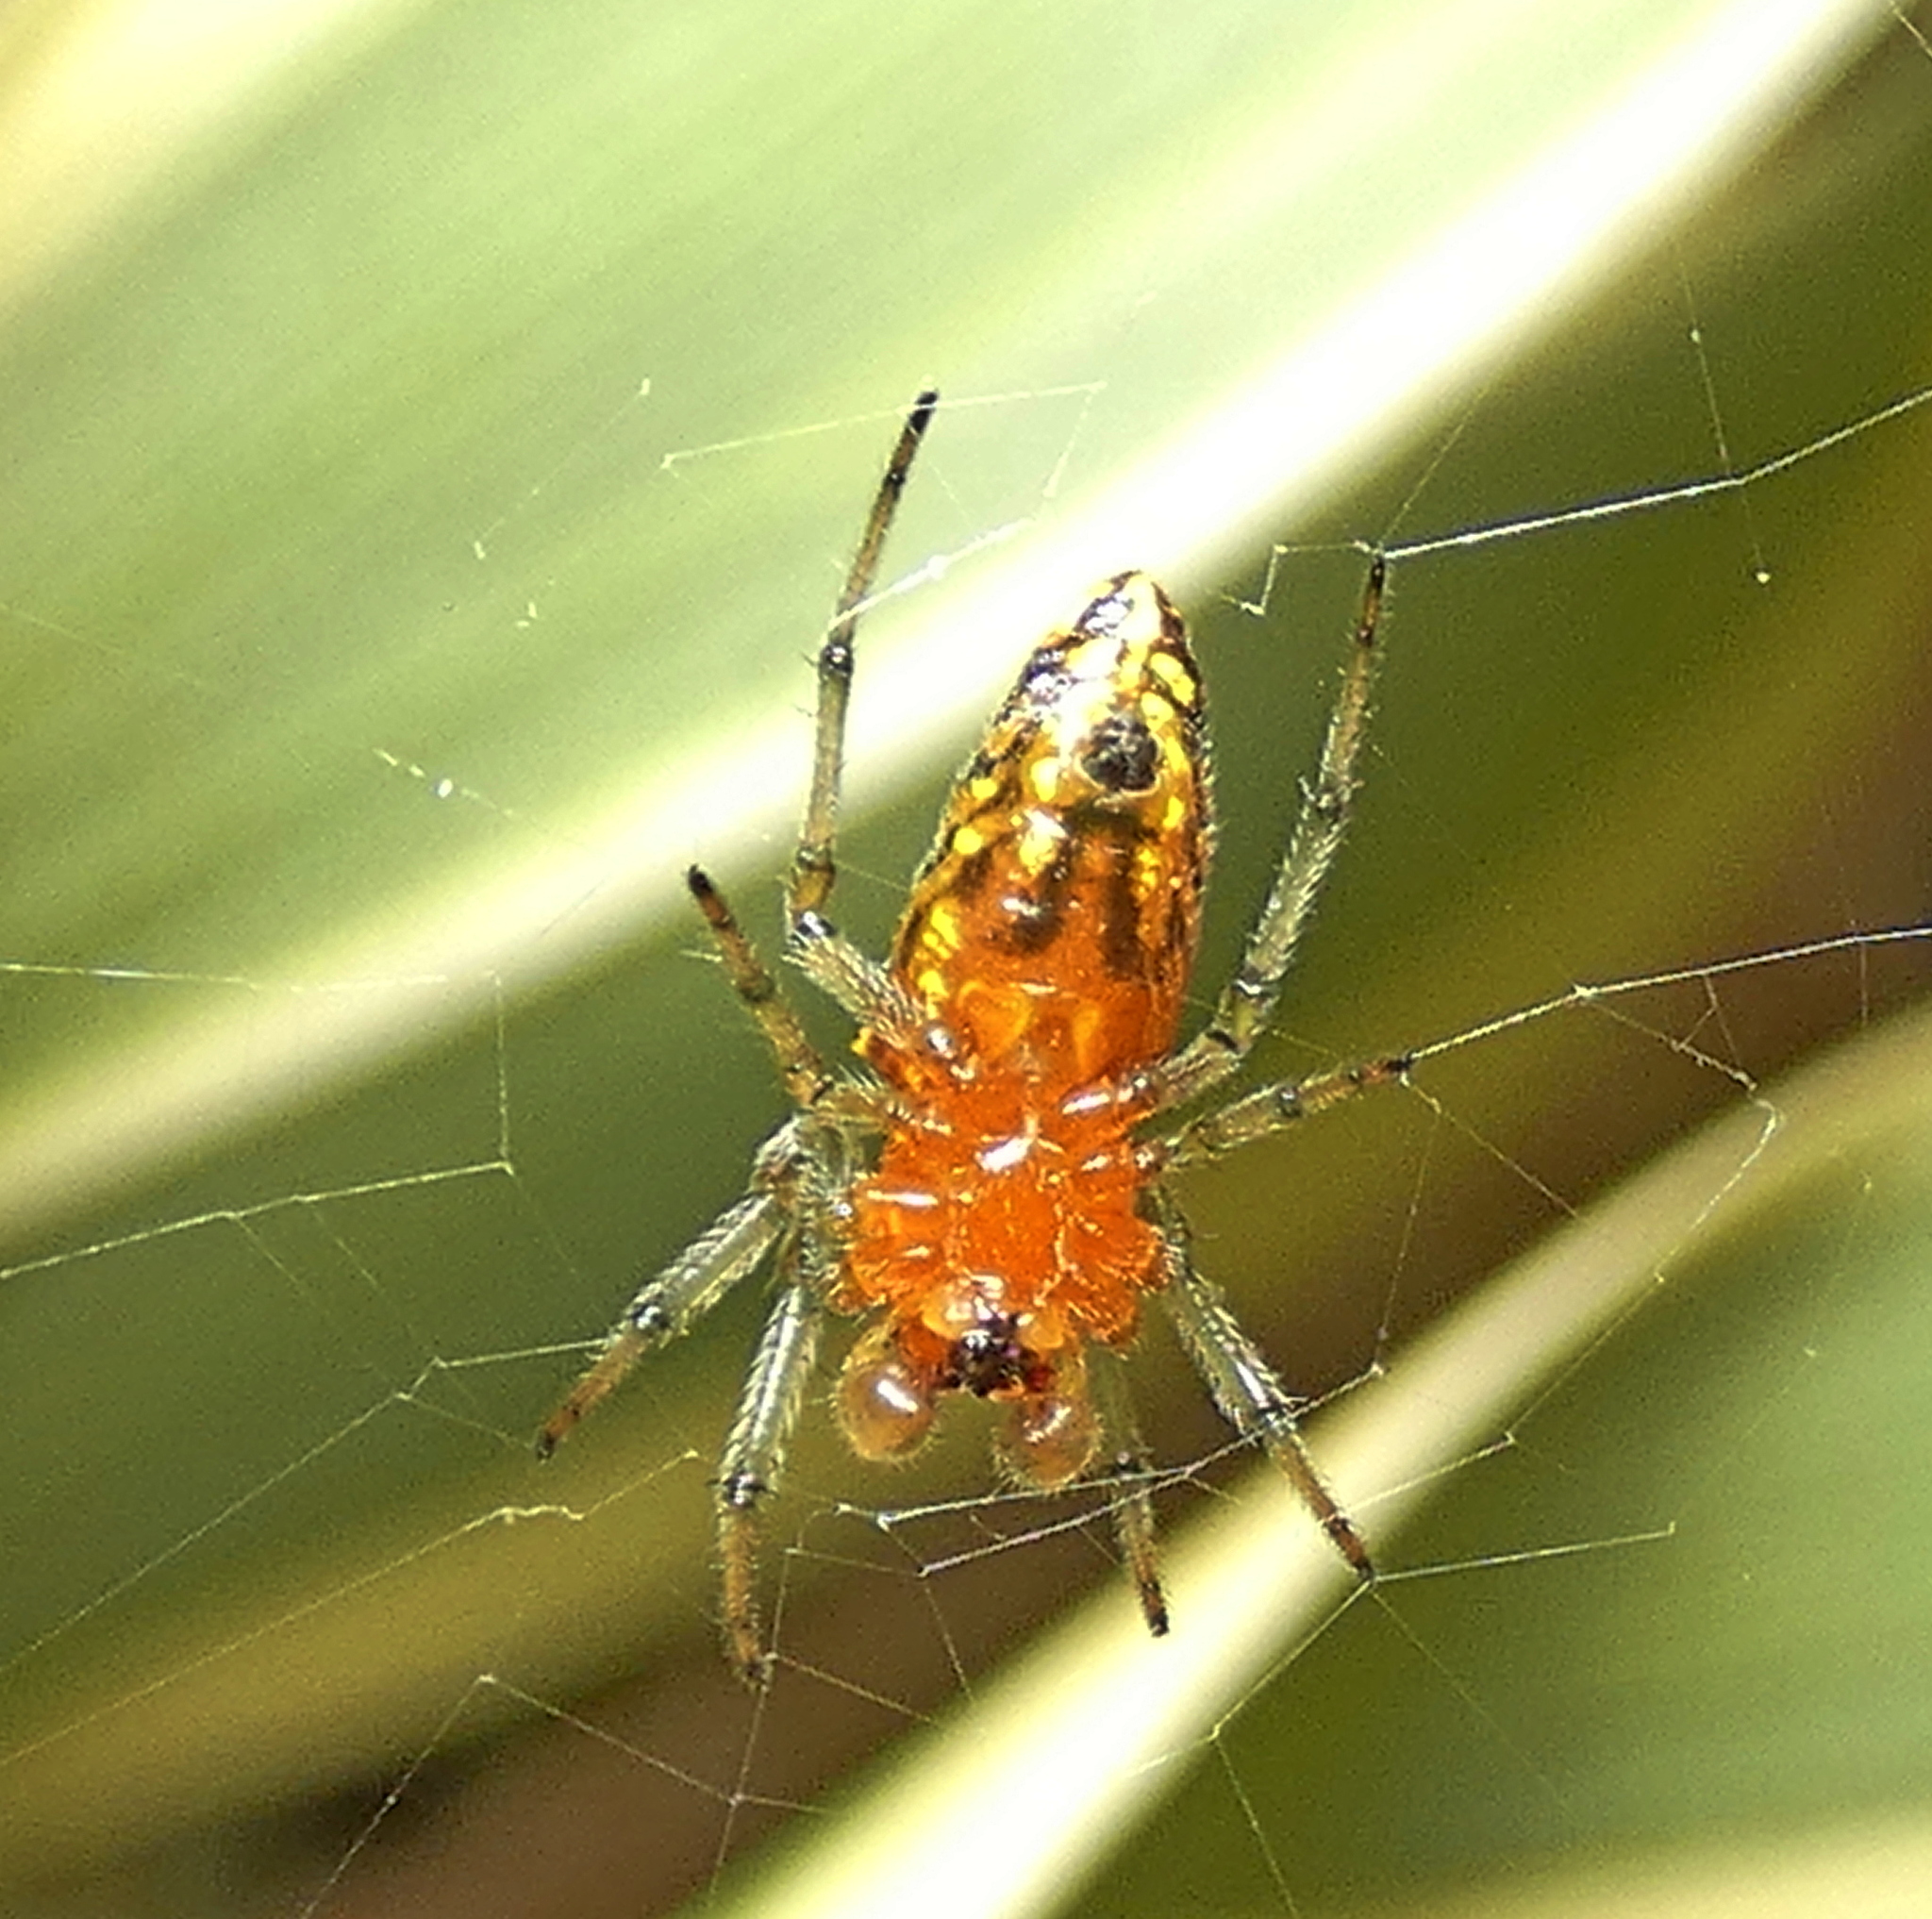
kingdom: Animalia
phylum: Arthropoda
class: Arachnida
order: Araneae
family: Araneidae
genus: Alpaida
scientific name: Alpaida bicornuta
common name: Orb weavers
